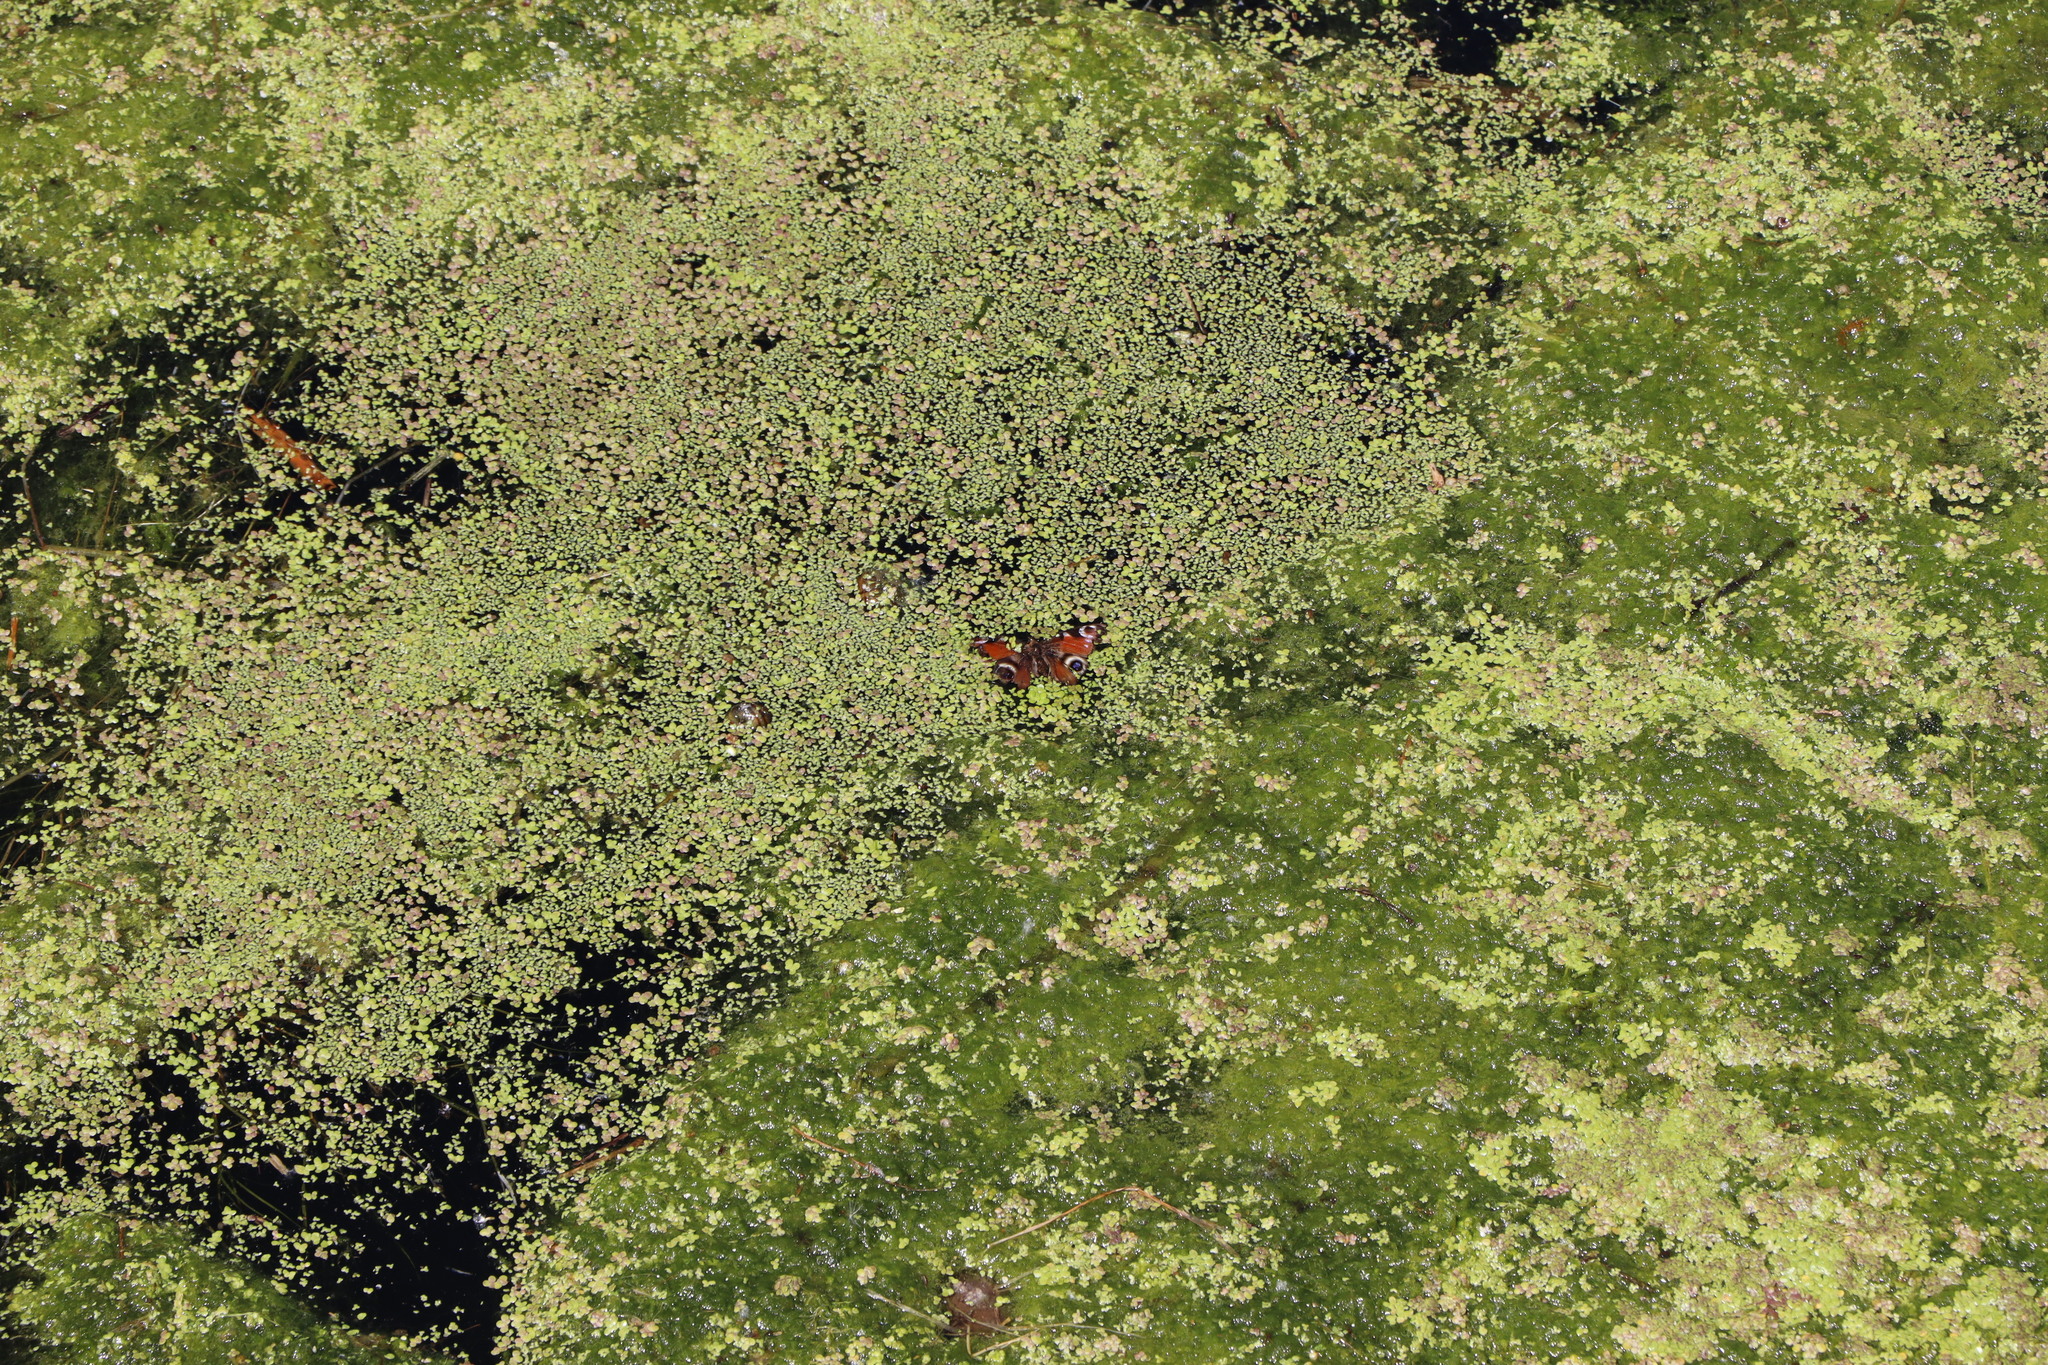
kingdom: Animalia
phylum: Arthropoda
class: Insecta
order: Lepidoptera
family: Nymphalidae
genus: Aglais
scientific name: Aglais io
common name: Peacock
